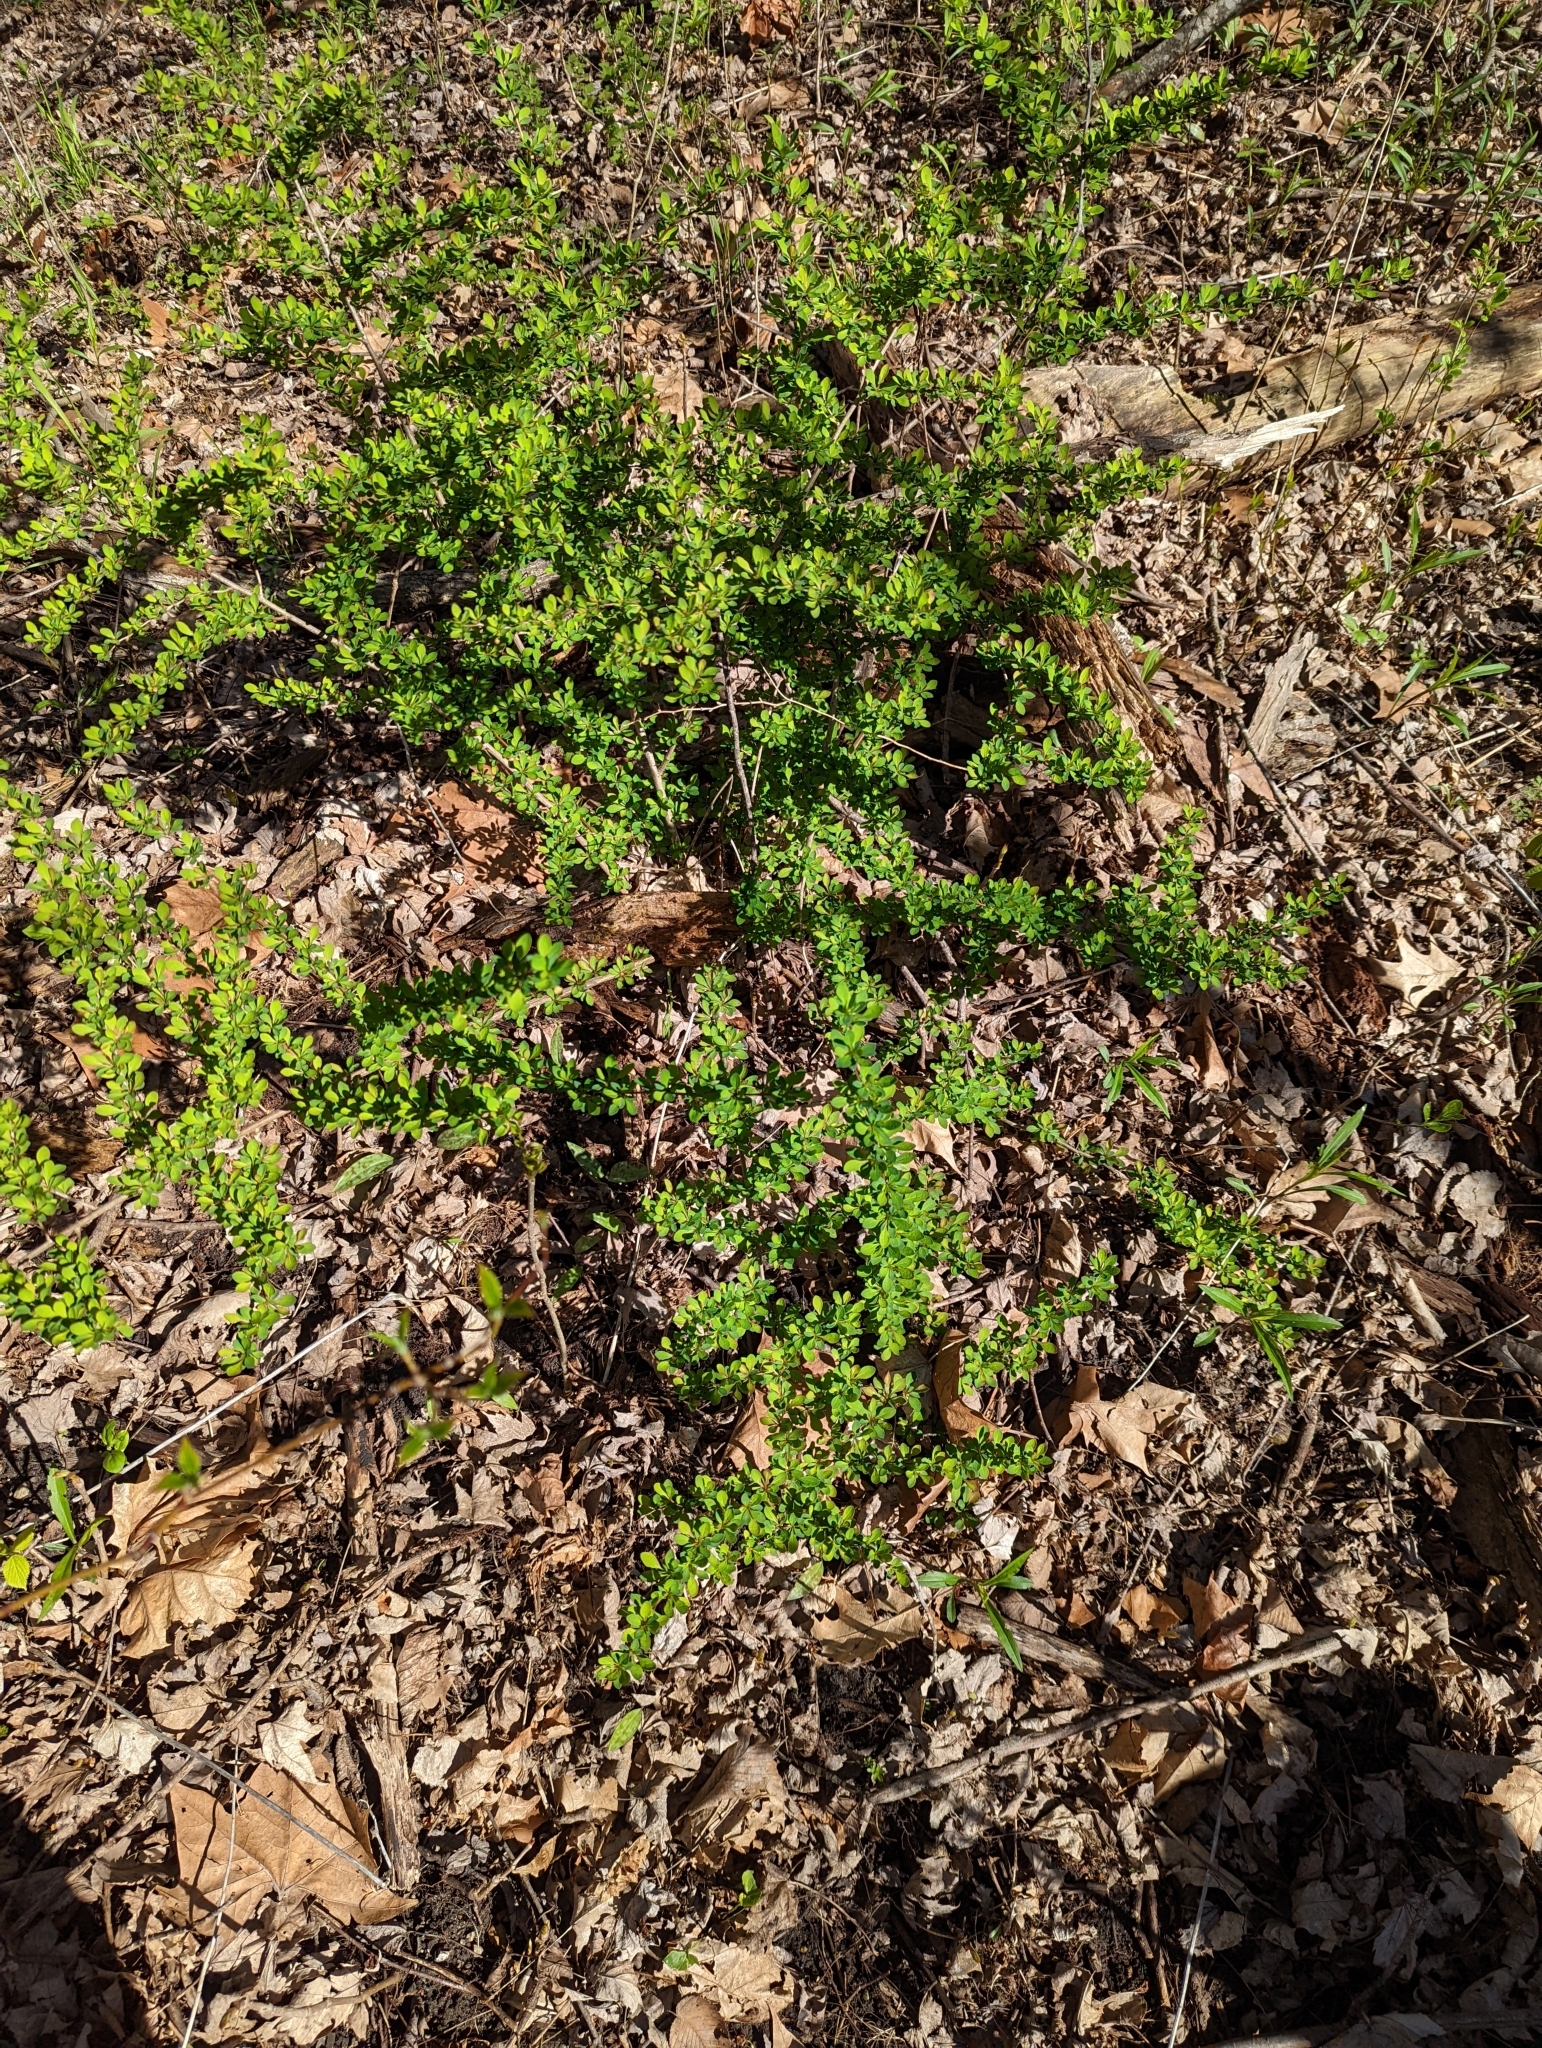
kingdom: Plantae
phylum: Tracheophyta
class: Magnoliopsida
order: Ranunculales
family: Berberidaceae
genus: Berberis
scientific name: Berberis thunbergii
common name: Japanese barberry
